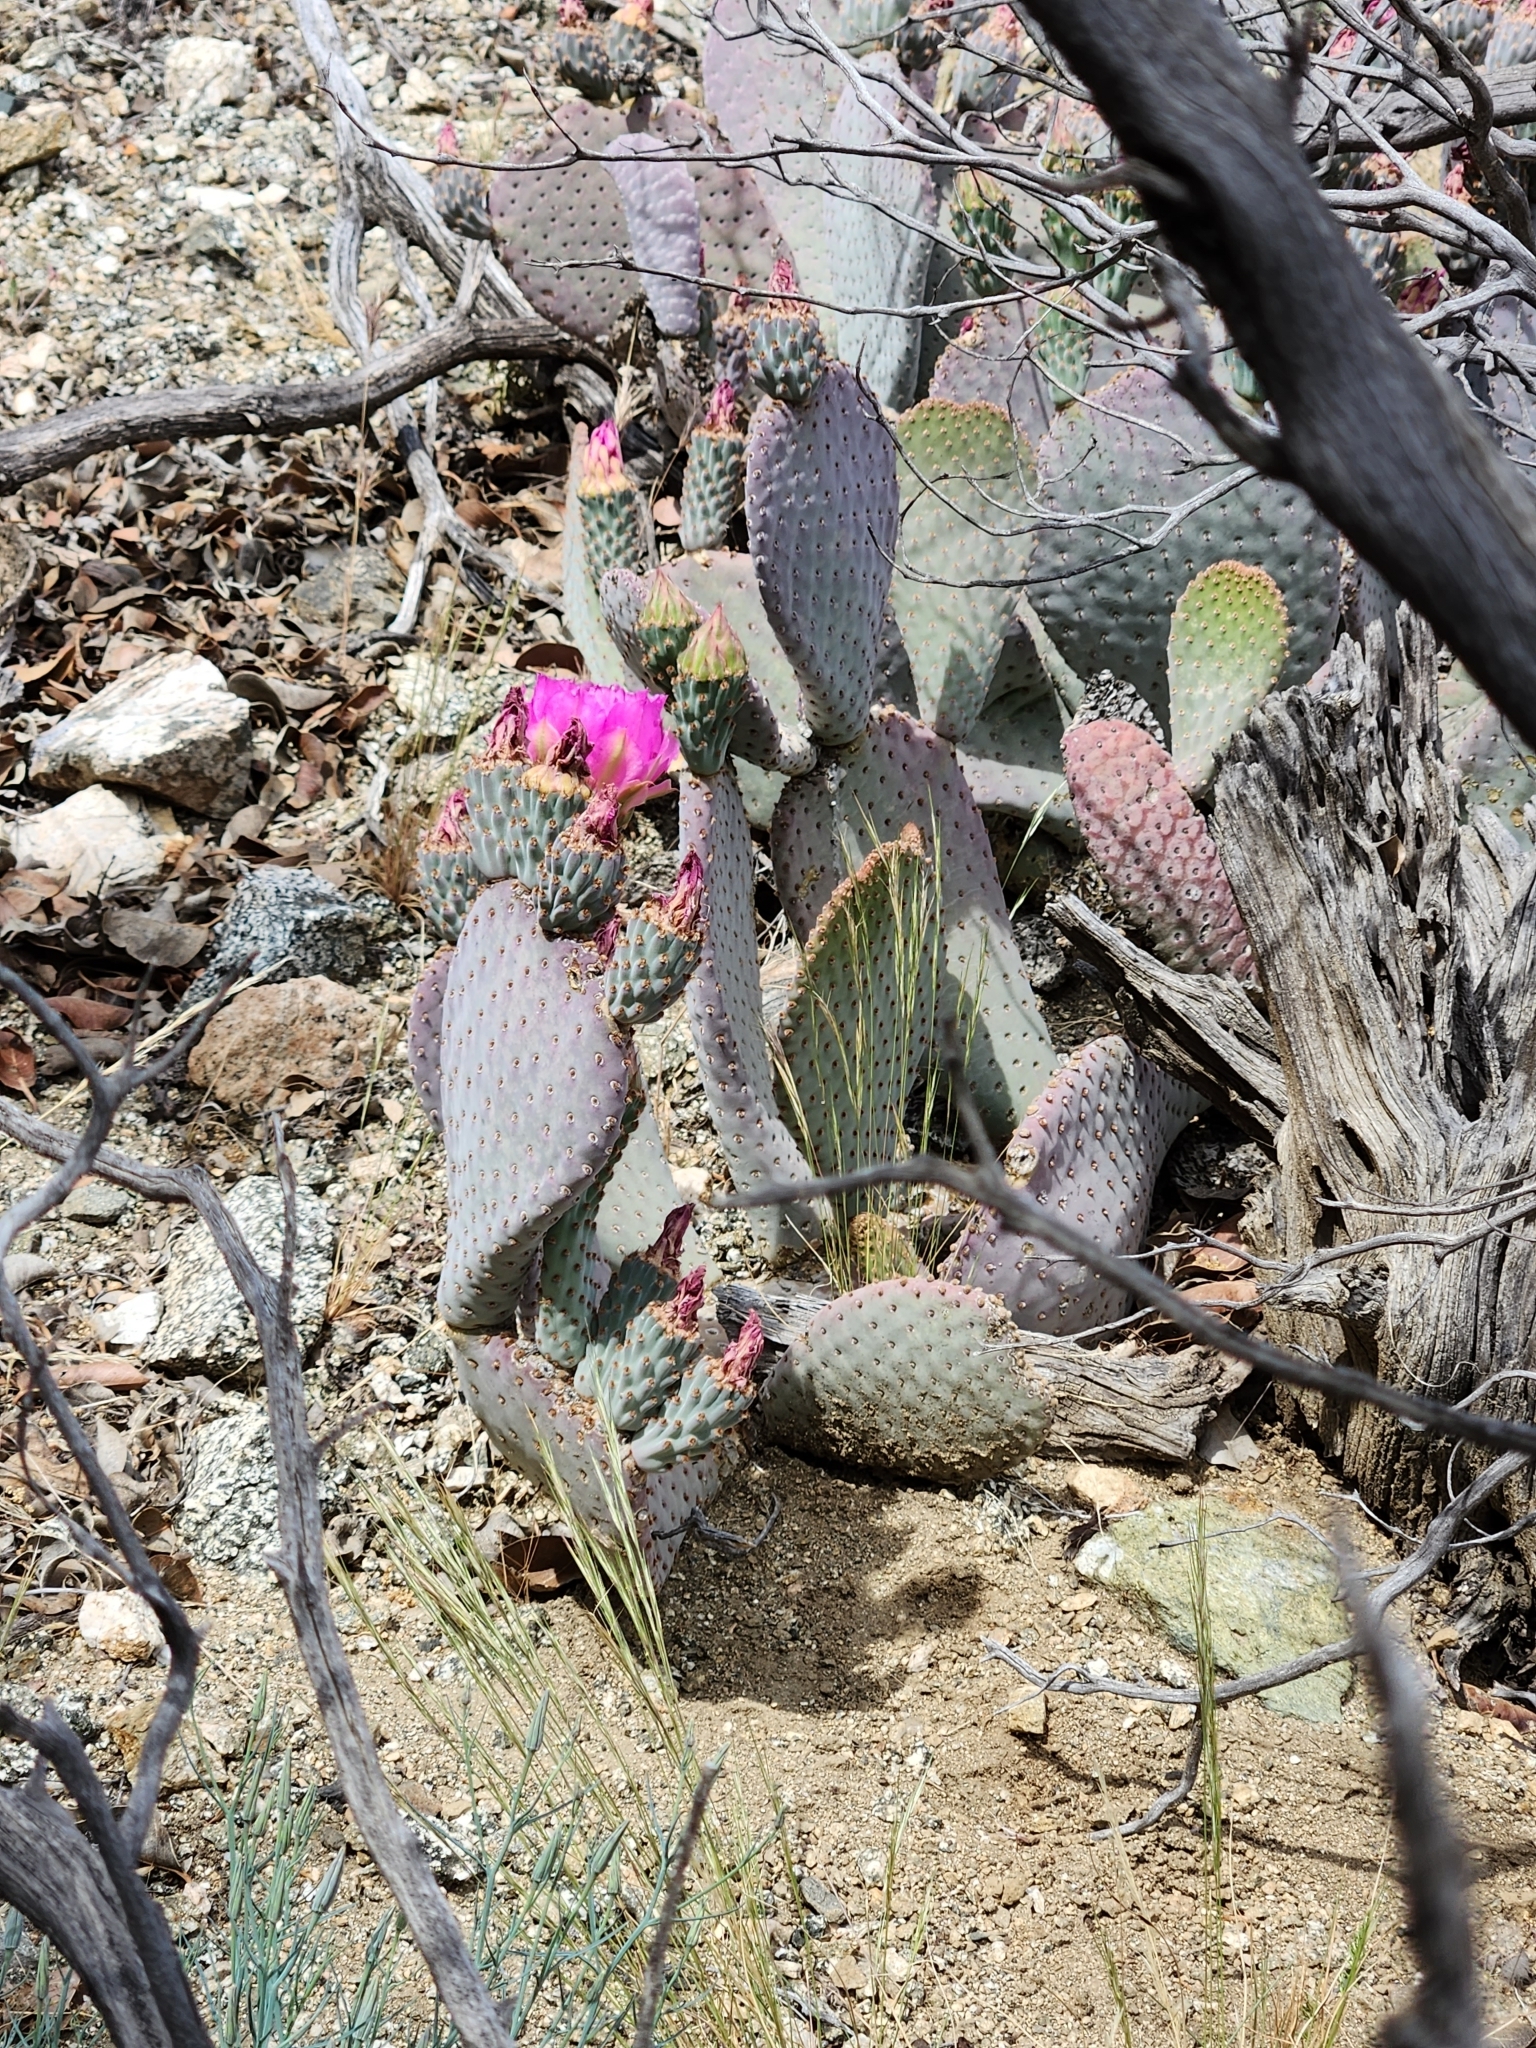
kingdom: Plantae
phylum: Tracheophyta
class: Magnoliopsida
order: Caryophyllales
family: Cactaceae
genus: Opuntia
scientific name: Opuntia basilaris
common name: Beavertail prickly-pear
